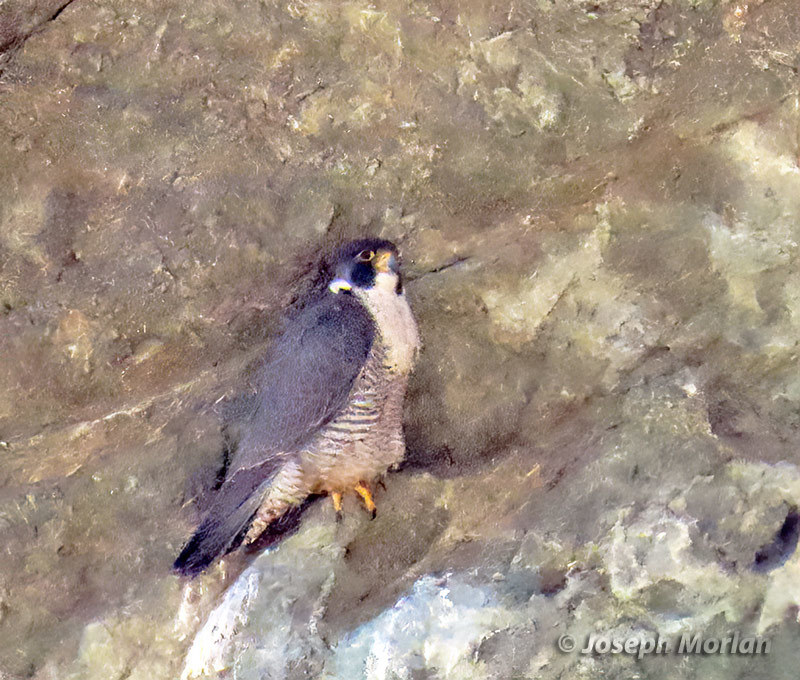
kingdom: Animalia
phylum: Chordata
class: Aves
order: Falconiformes
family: Falconidae
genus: Falco
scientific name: Falco peregrinus
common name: Peregrine falcon
